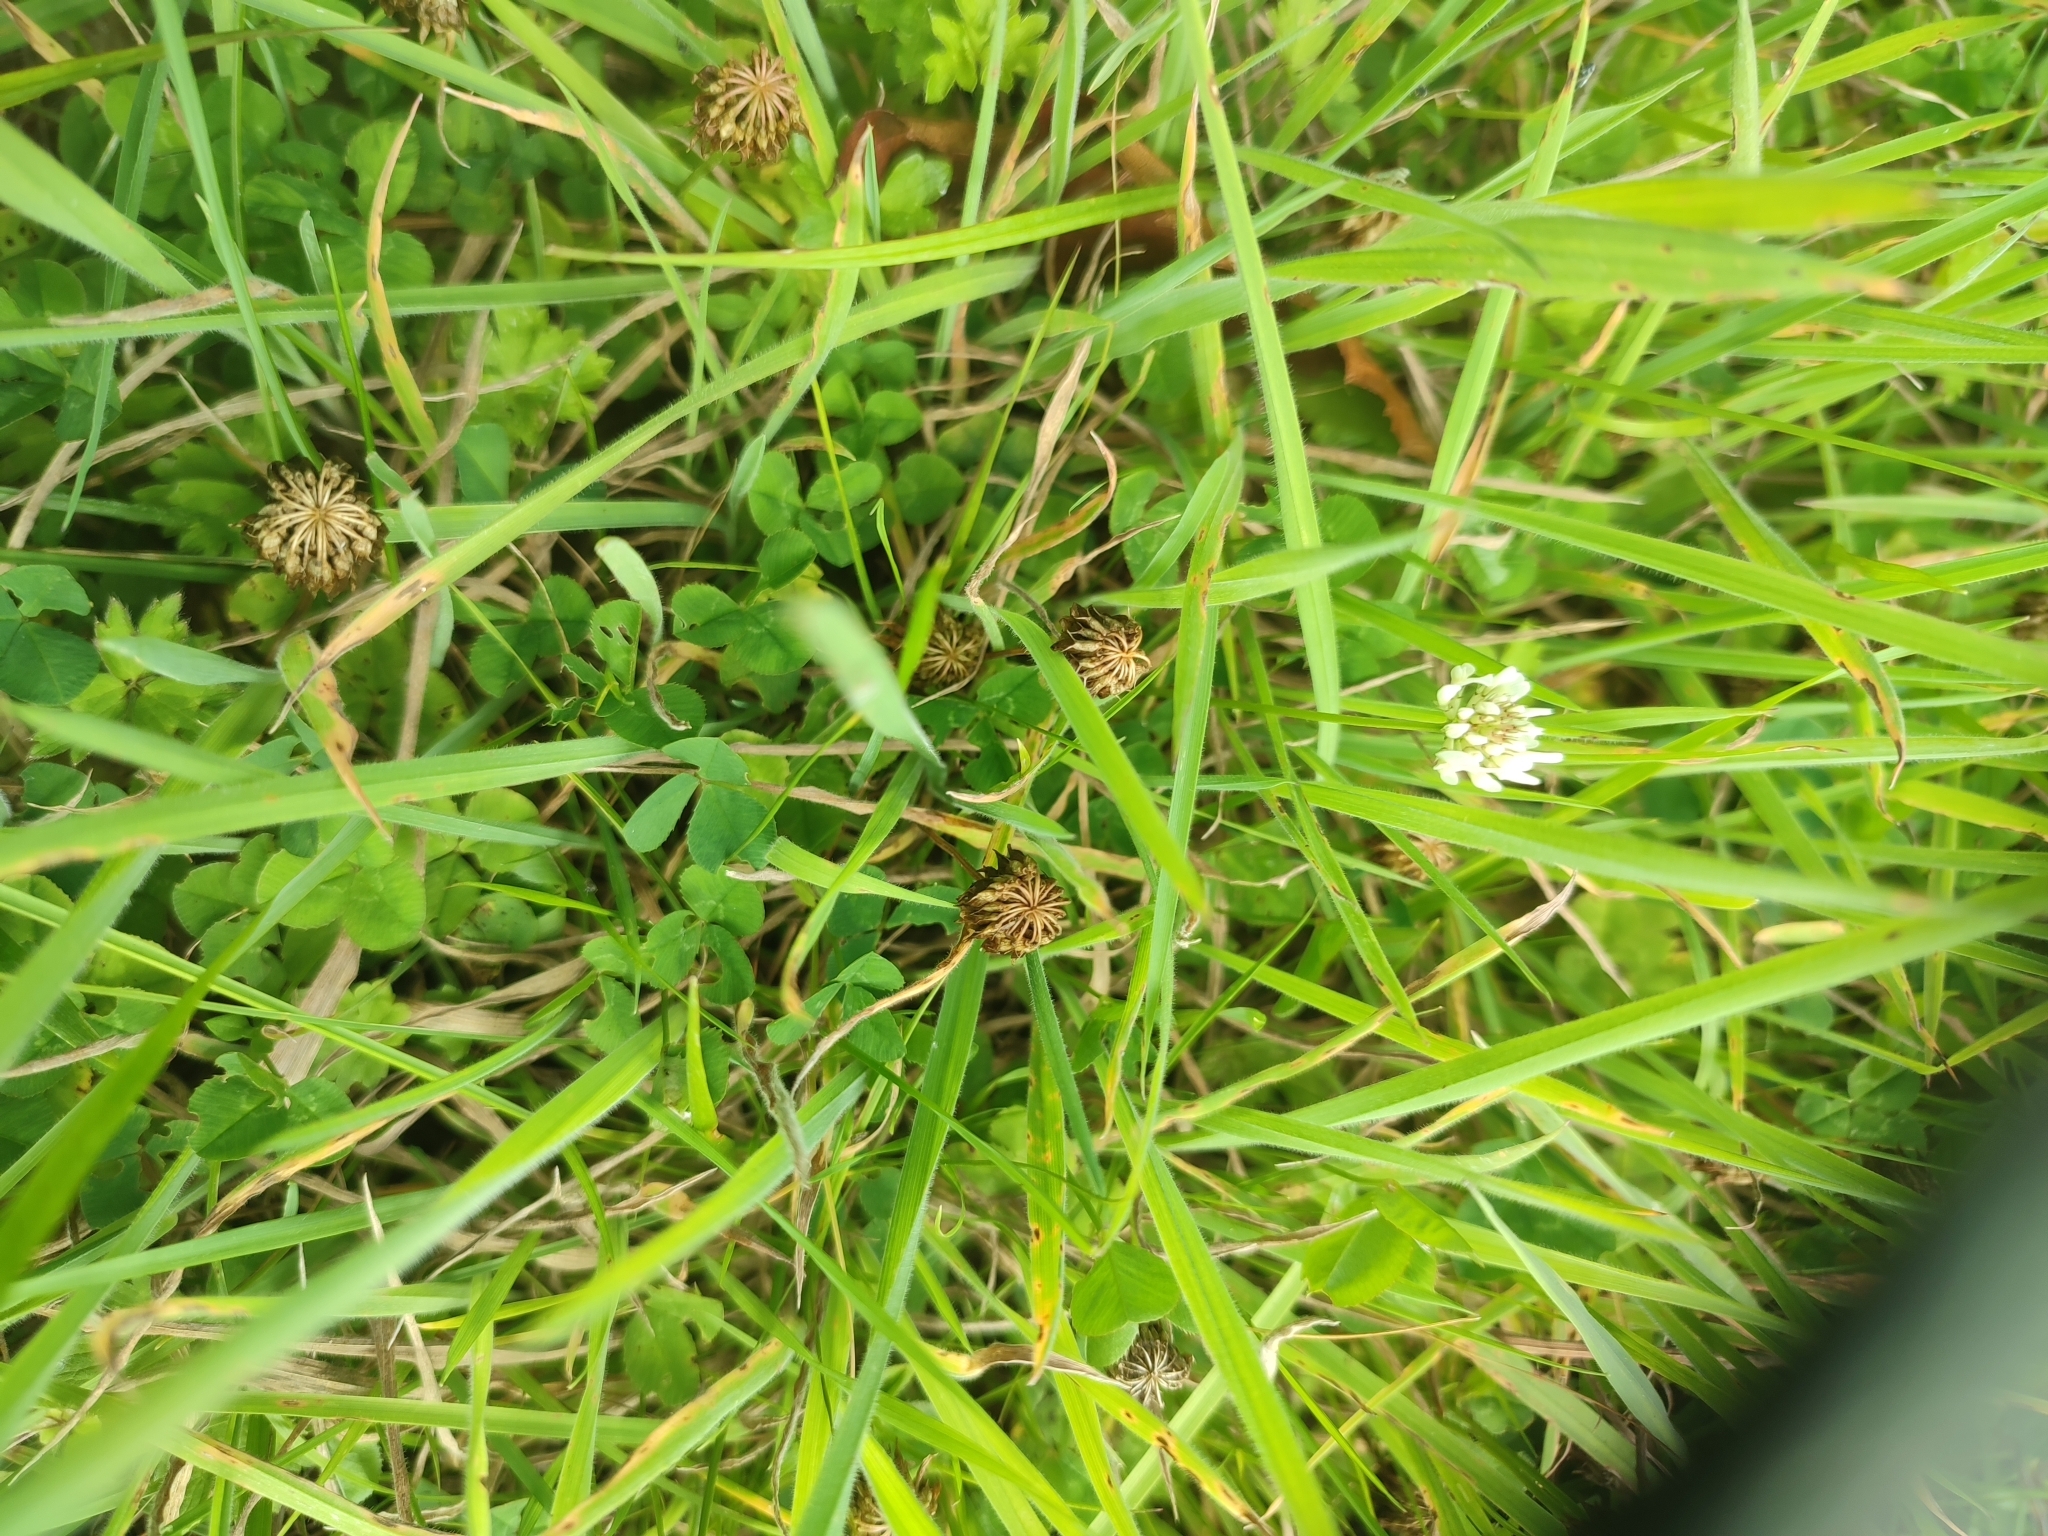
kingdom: Plantae
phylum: Tracheophyta
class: Magnoliopsida
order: Fabales
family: Fabaceae
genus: Trifolium
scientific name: Trifolium repens
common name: White clover
